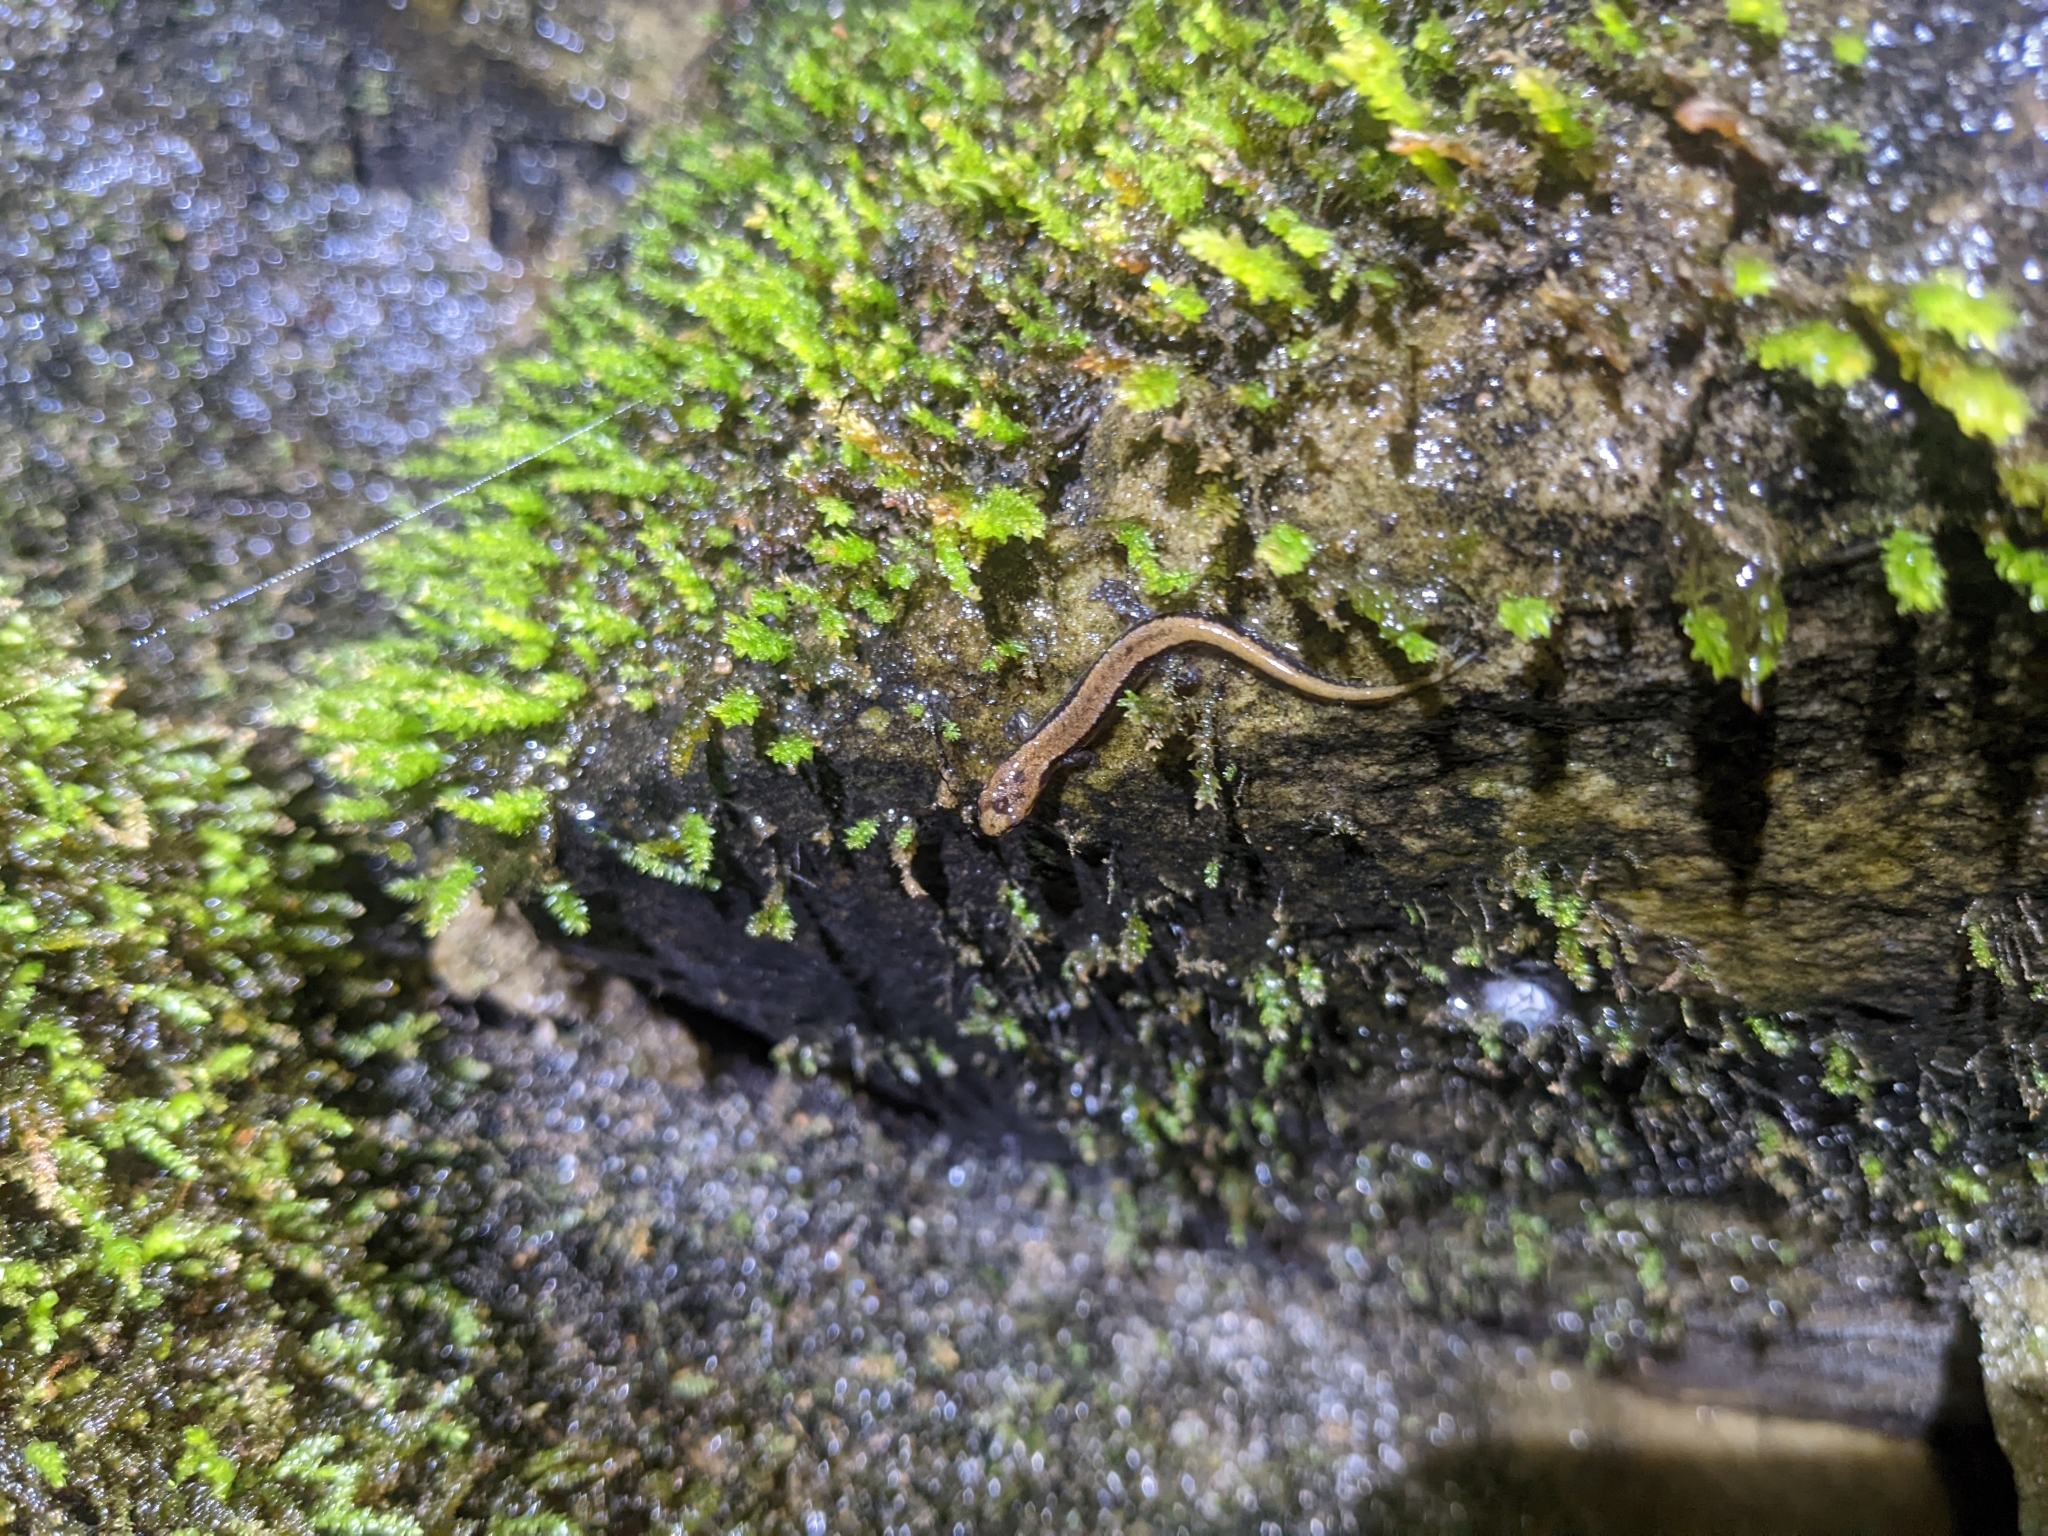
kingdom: Animalia
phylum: Chordata
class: Amphibia
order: Caudata
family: Plethodontidae
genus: Desmognathus
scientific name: Desmognathus ochrophaeus
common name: Allegheny mountain dusky salamander
